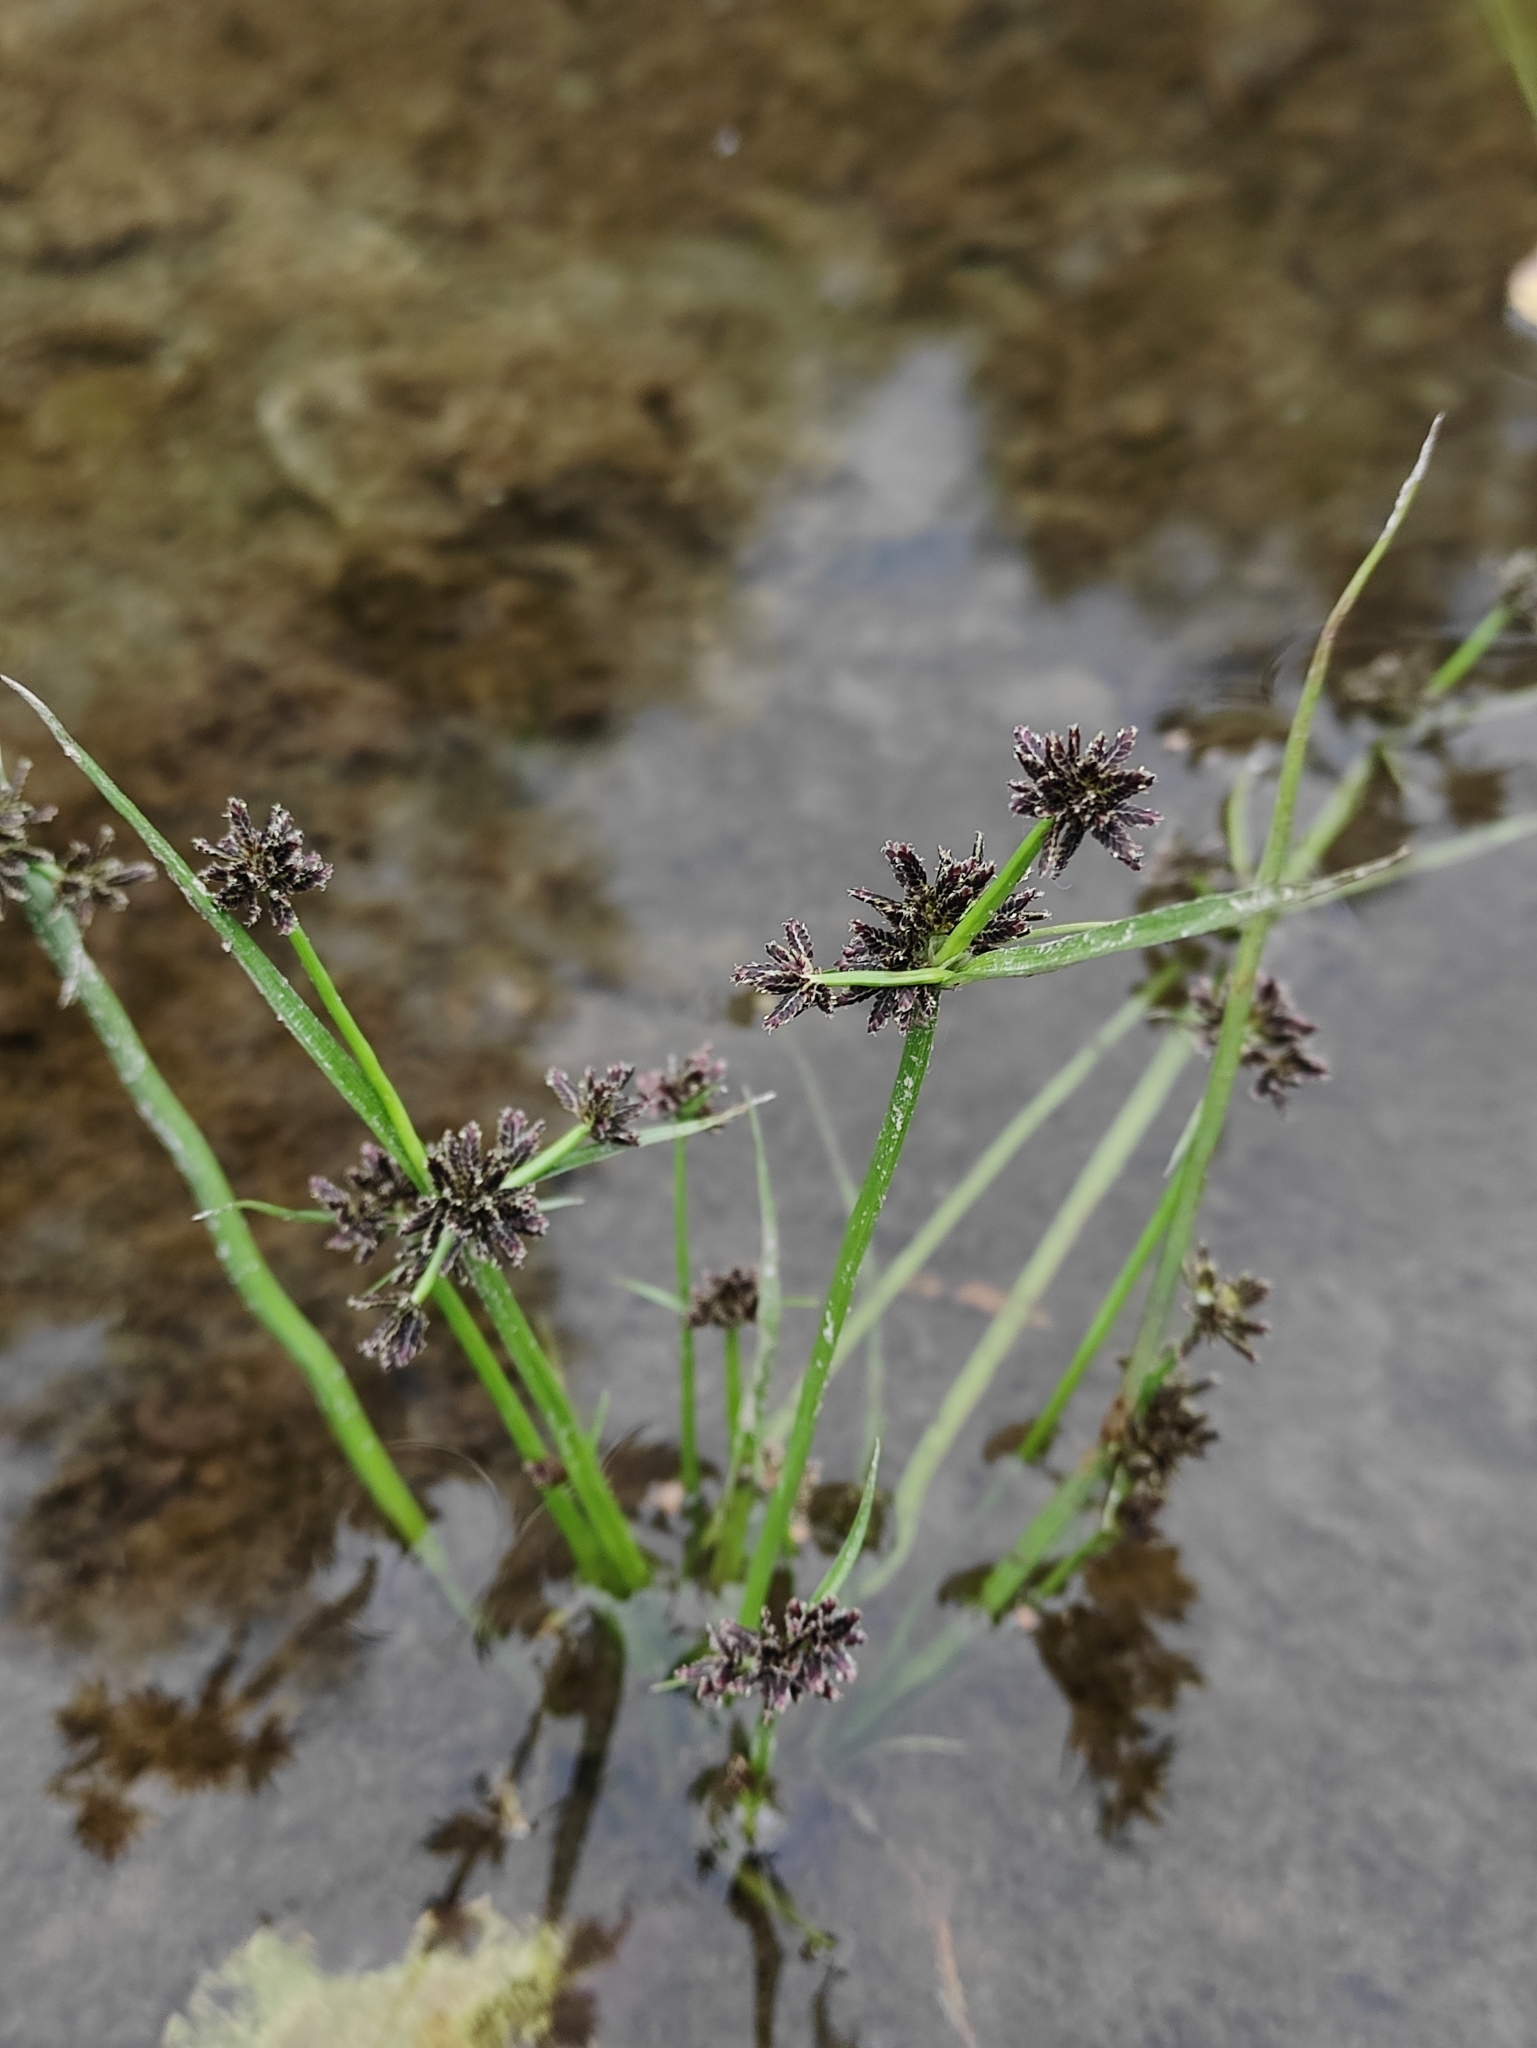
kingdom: Plantae
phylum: Tracheophyta
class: Liliopsida
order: Poales
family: Cyperaceae
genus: Cyperus
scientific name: Cyperus fuscus
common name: Brown galingale
